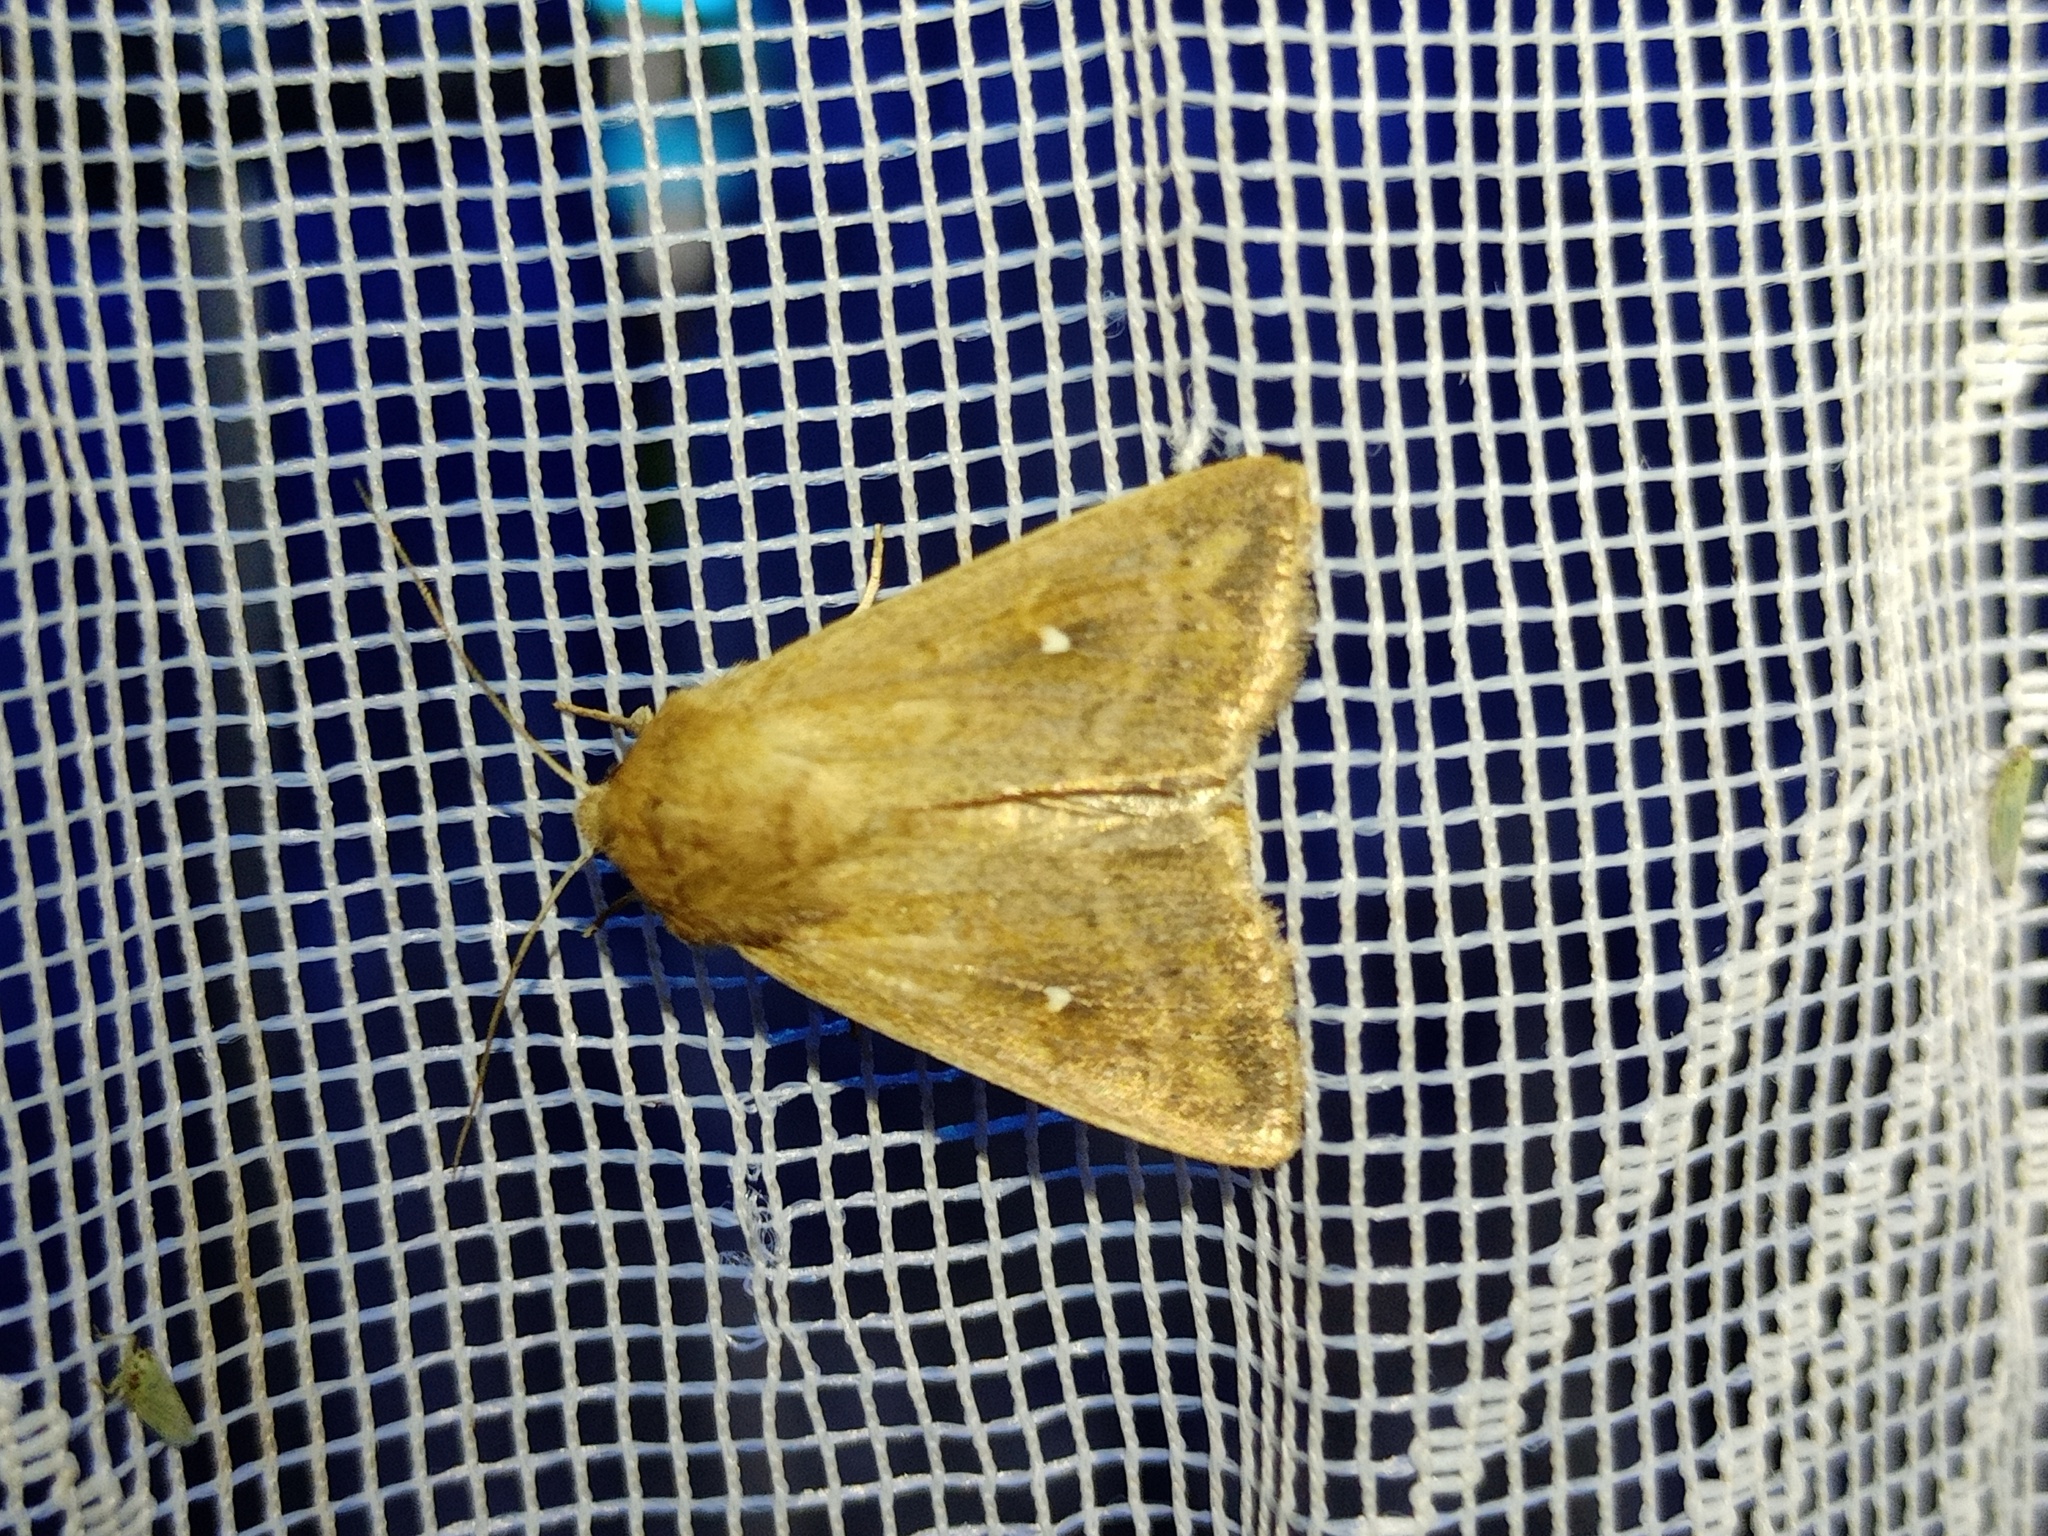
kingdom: Animalia
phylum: Arthropoda
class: Insecta
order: Lepidoptera
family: Noctuidae
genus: Mythimna
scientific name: Mythimna albipuncta
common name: White-point
